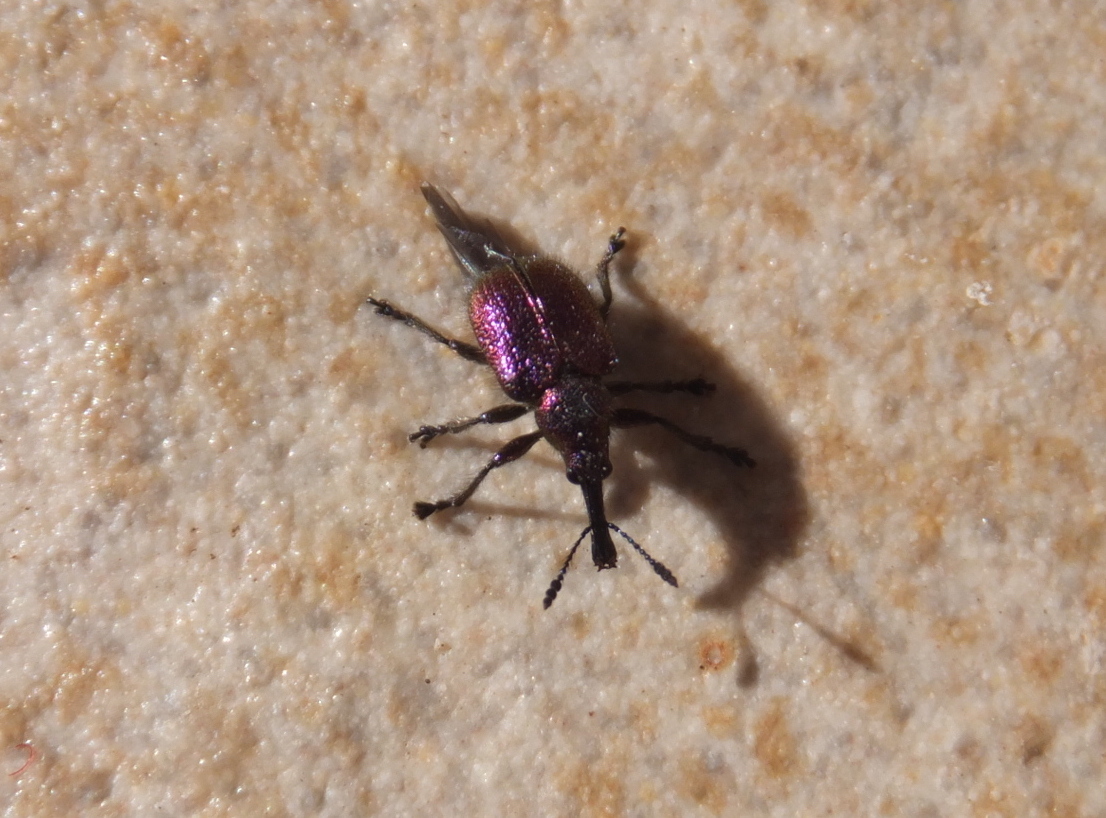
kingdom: Animalia
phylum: Arthropoda
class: Insecta
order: Coleoptera
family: Attelabidae
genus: Rhynchites
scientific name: Rhynchites bacchus
